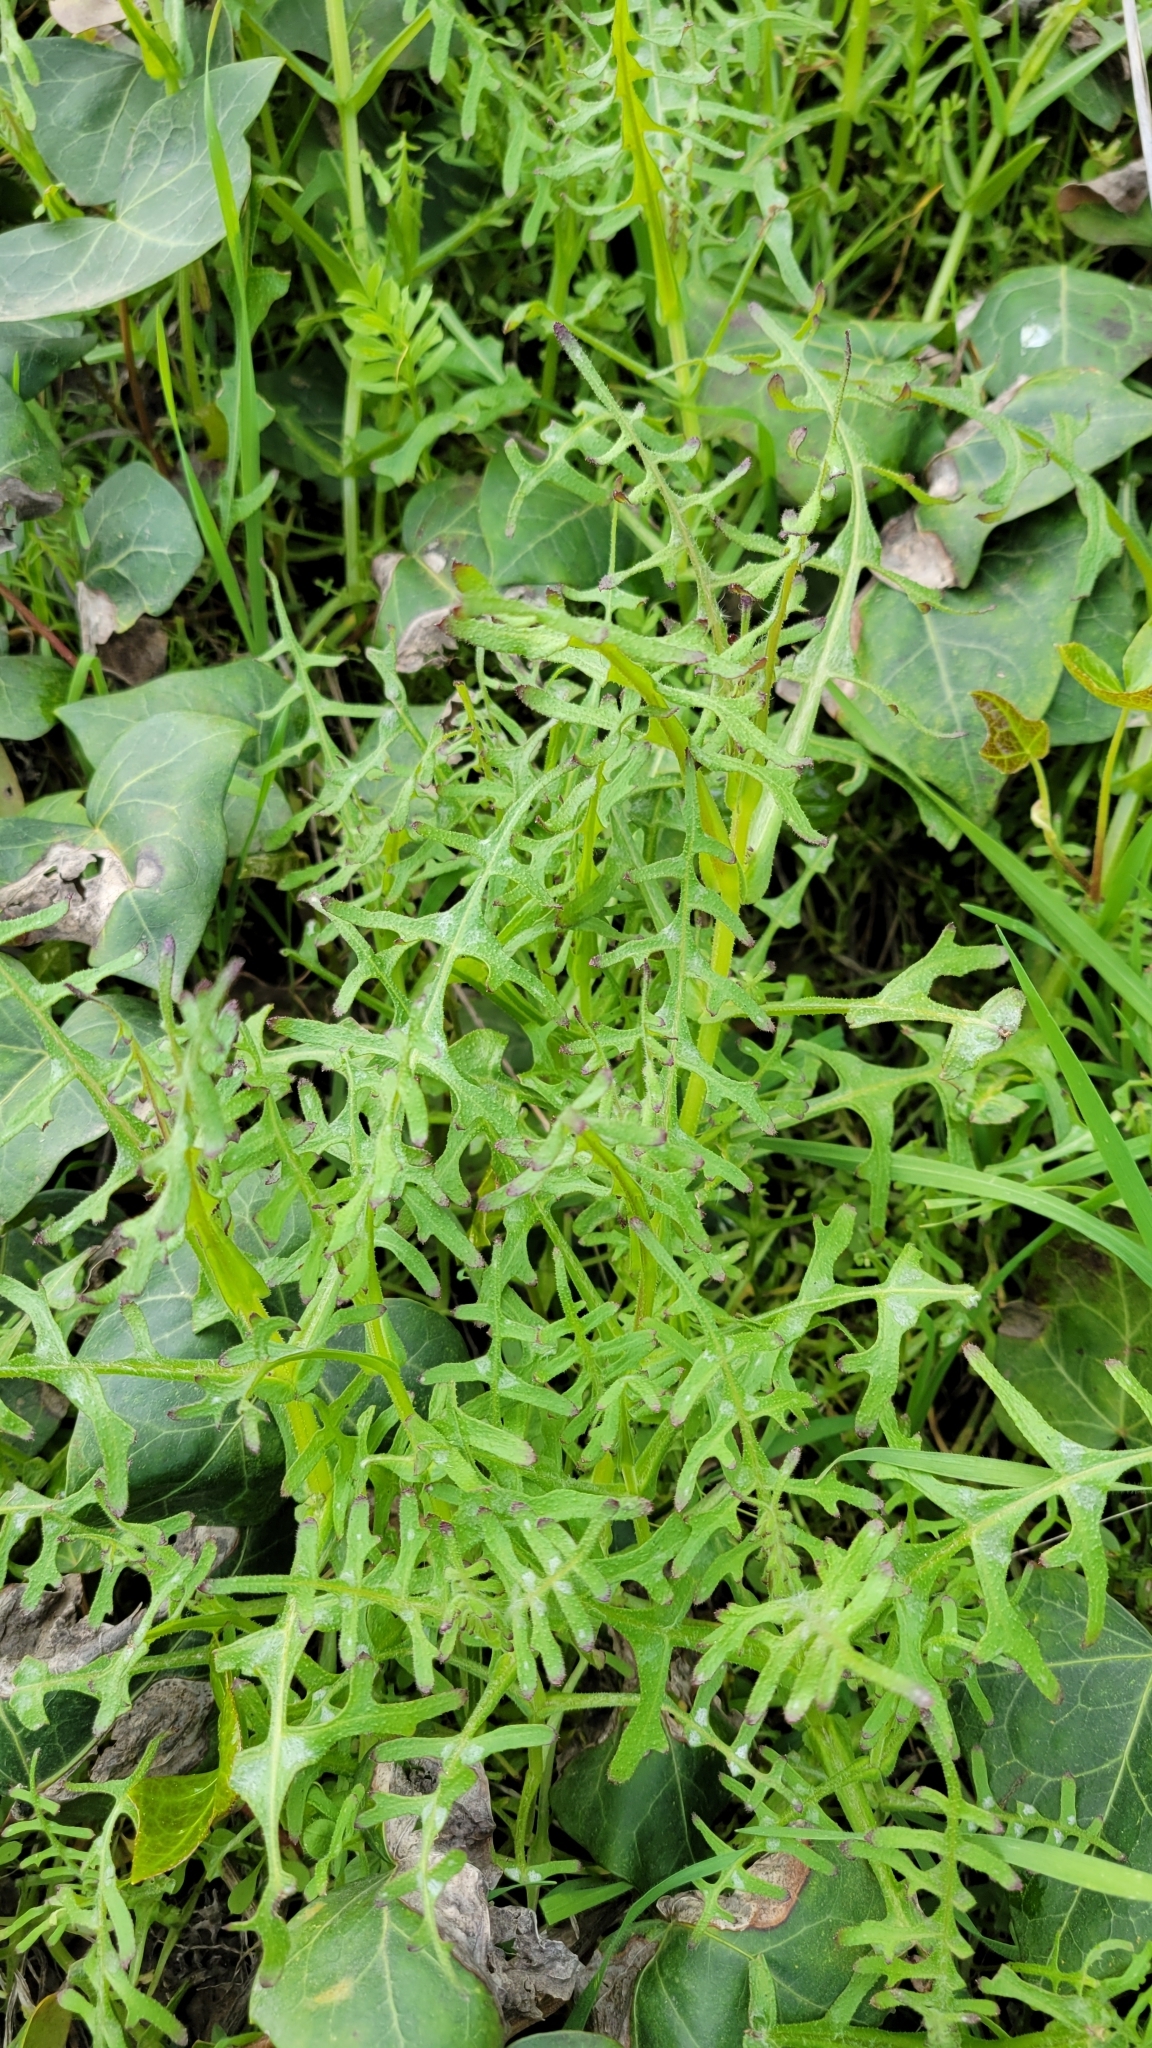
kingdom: Plantae
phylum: Tracheophyta
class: Magnoliopsida
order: Boraginales
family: Hydrophyllaceae
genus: Pholistoma
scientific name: Pholistoma auritum
